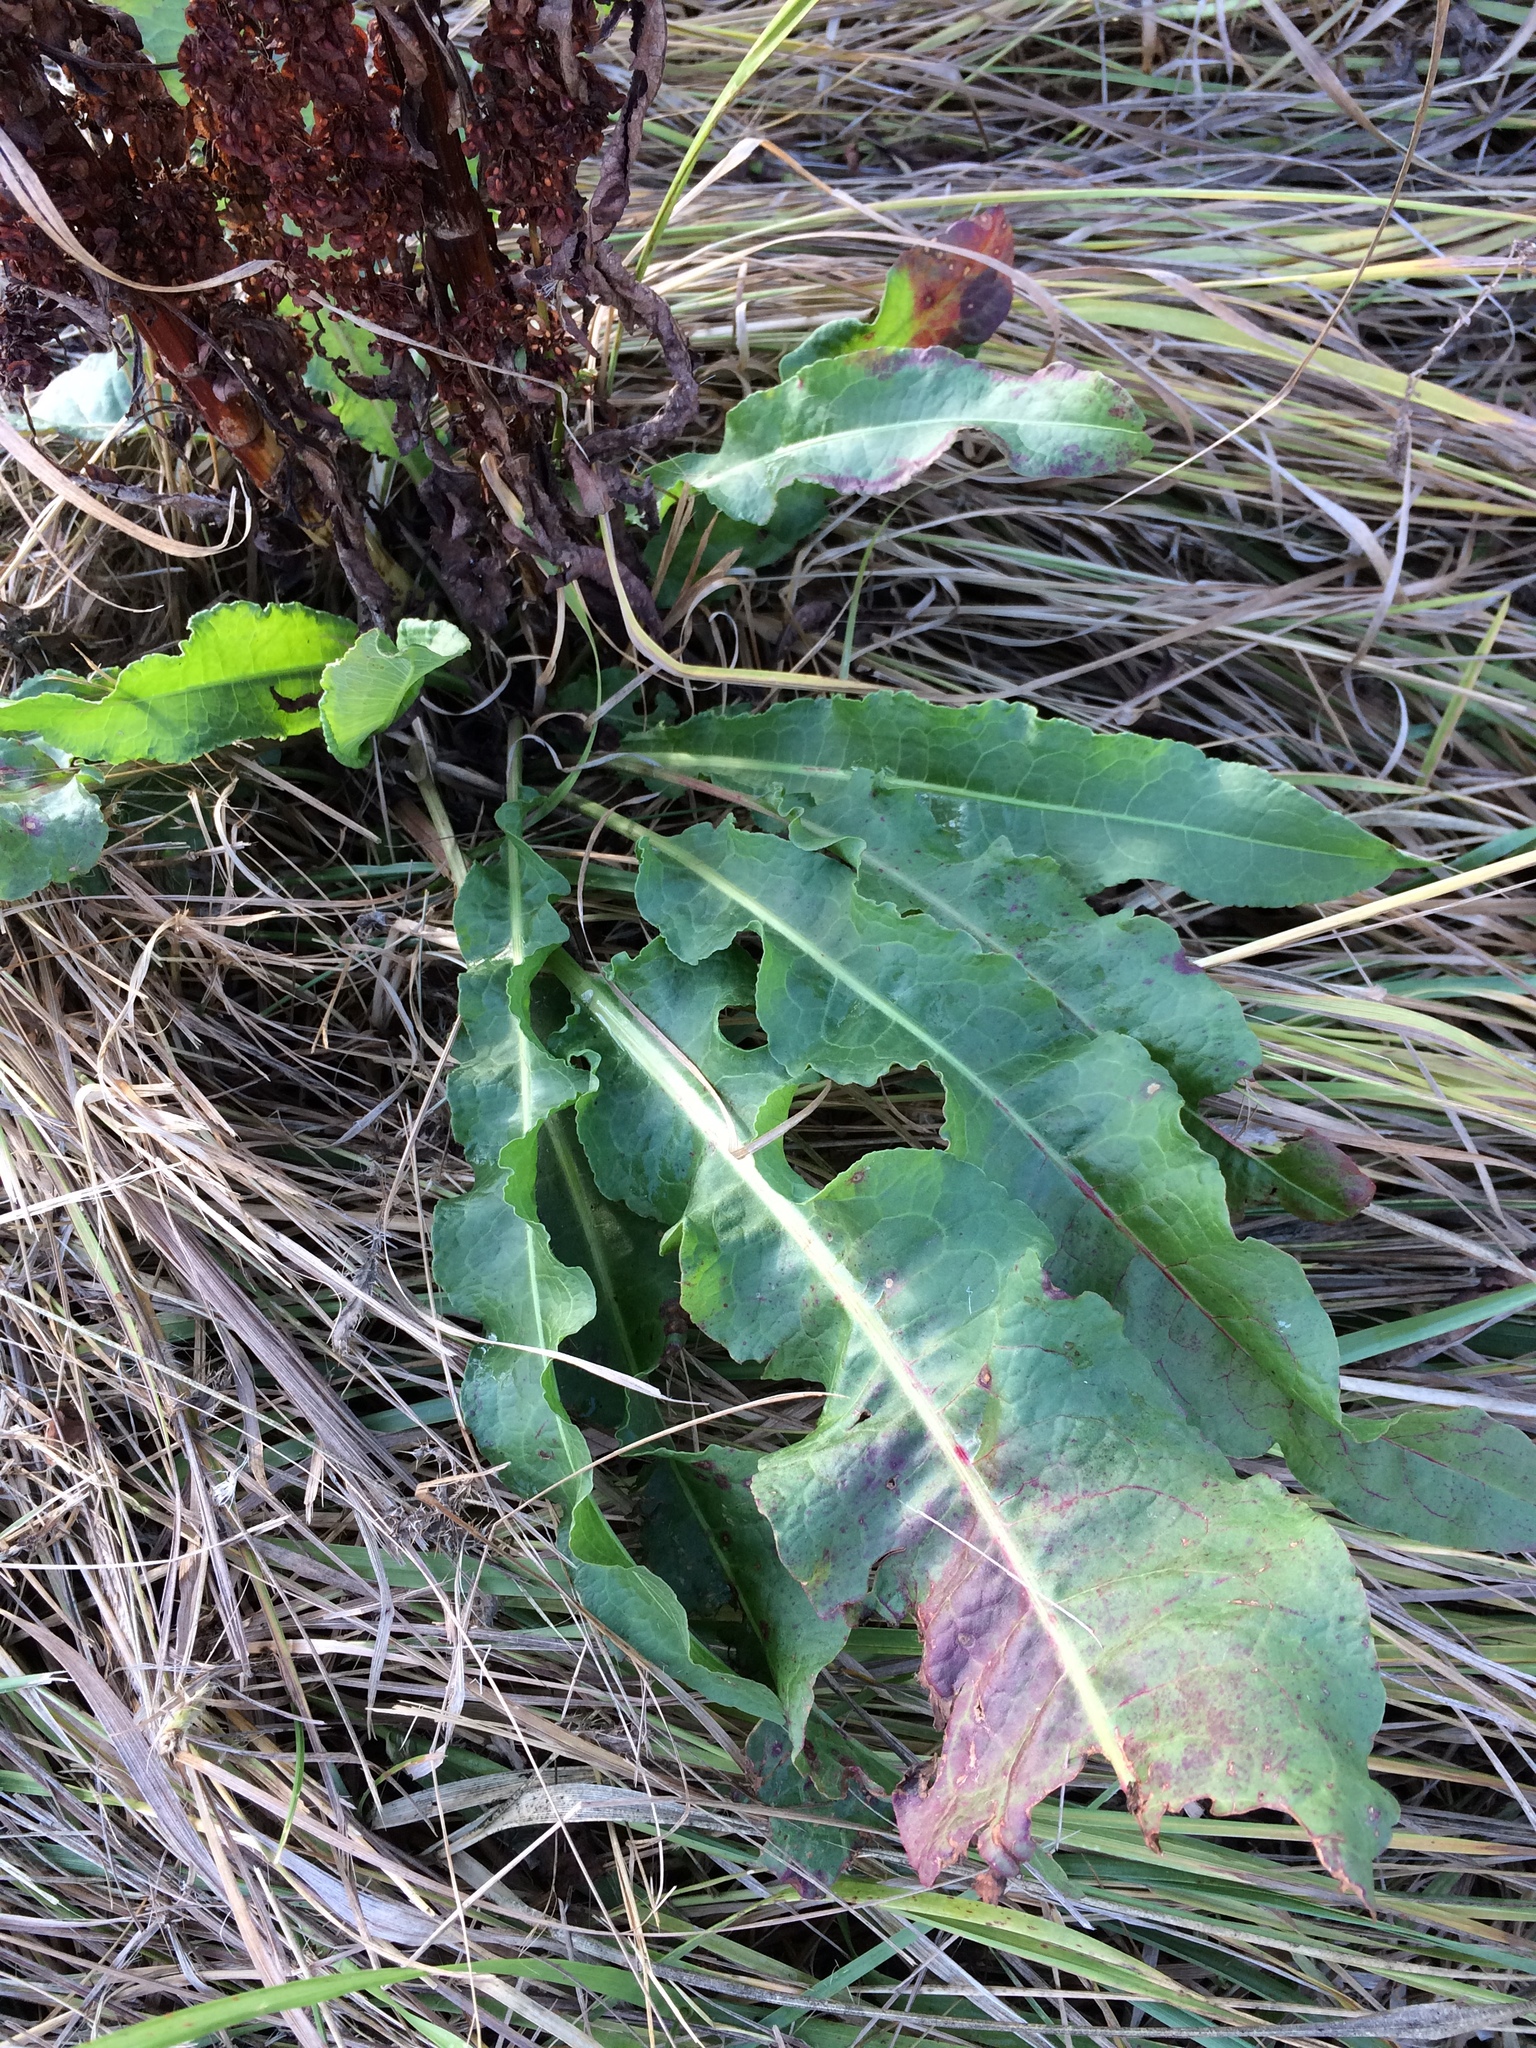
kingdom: Plantae
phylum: Tracheophyta
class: Magnoliopsida
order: Caryophyllales
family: Polygonaceae
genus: Rumex
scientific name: Rumex crispus
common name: Curled dock
